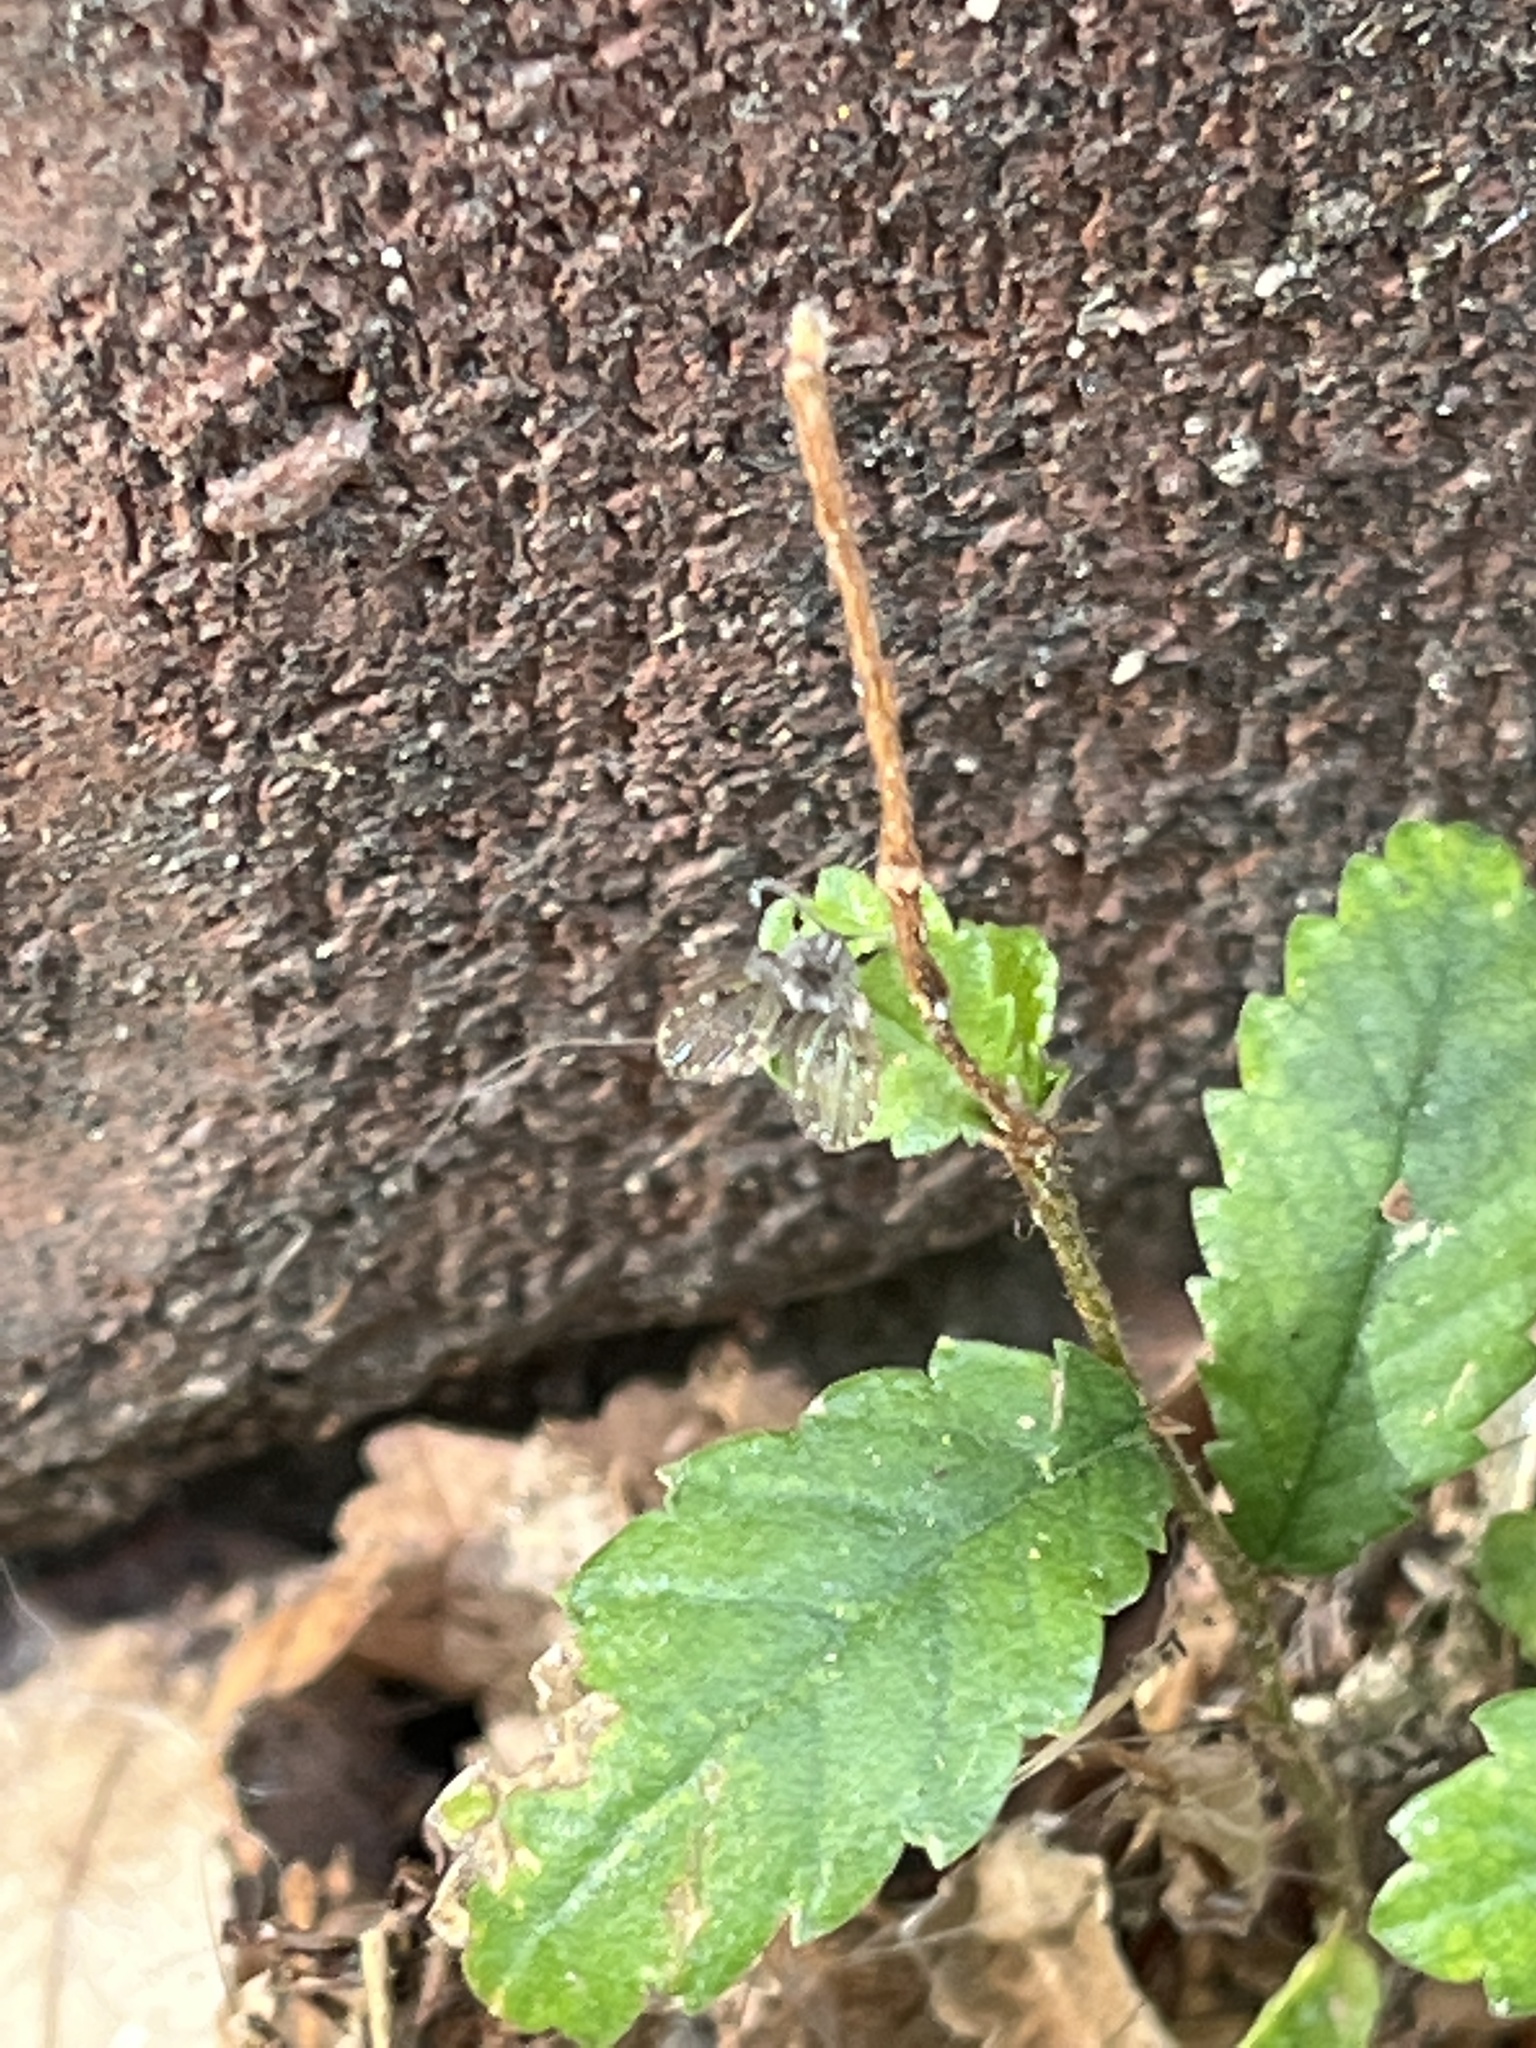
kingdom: Animalia
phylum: Arthropoda
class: Insecta
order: Diptera
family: Psychodidae
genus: Clogmia
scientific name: Clogmia albipunctatus
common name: White-spotted moth fly
